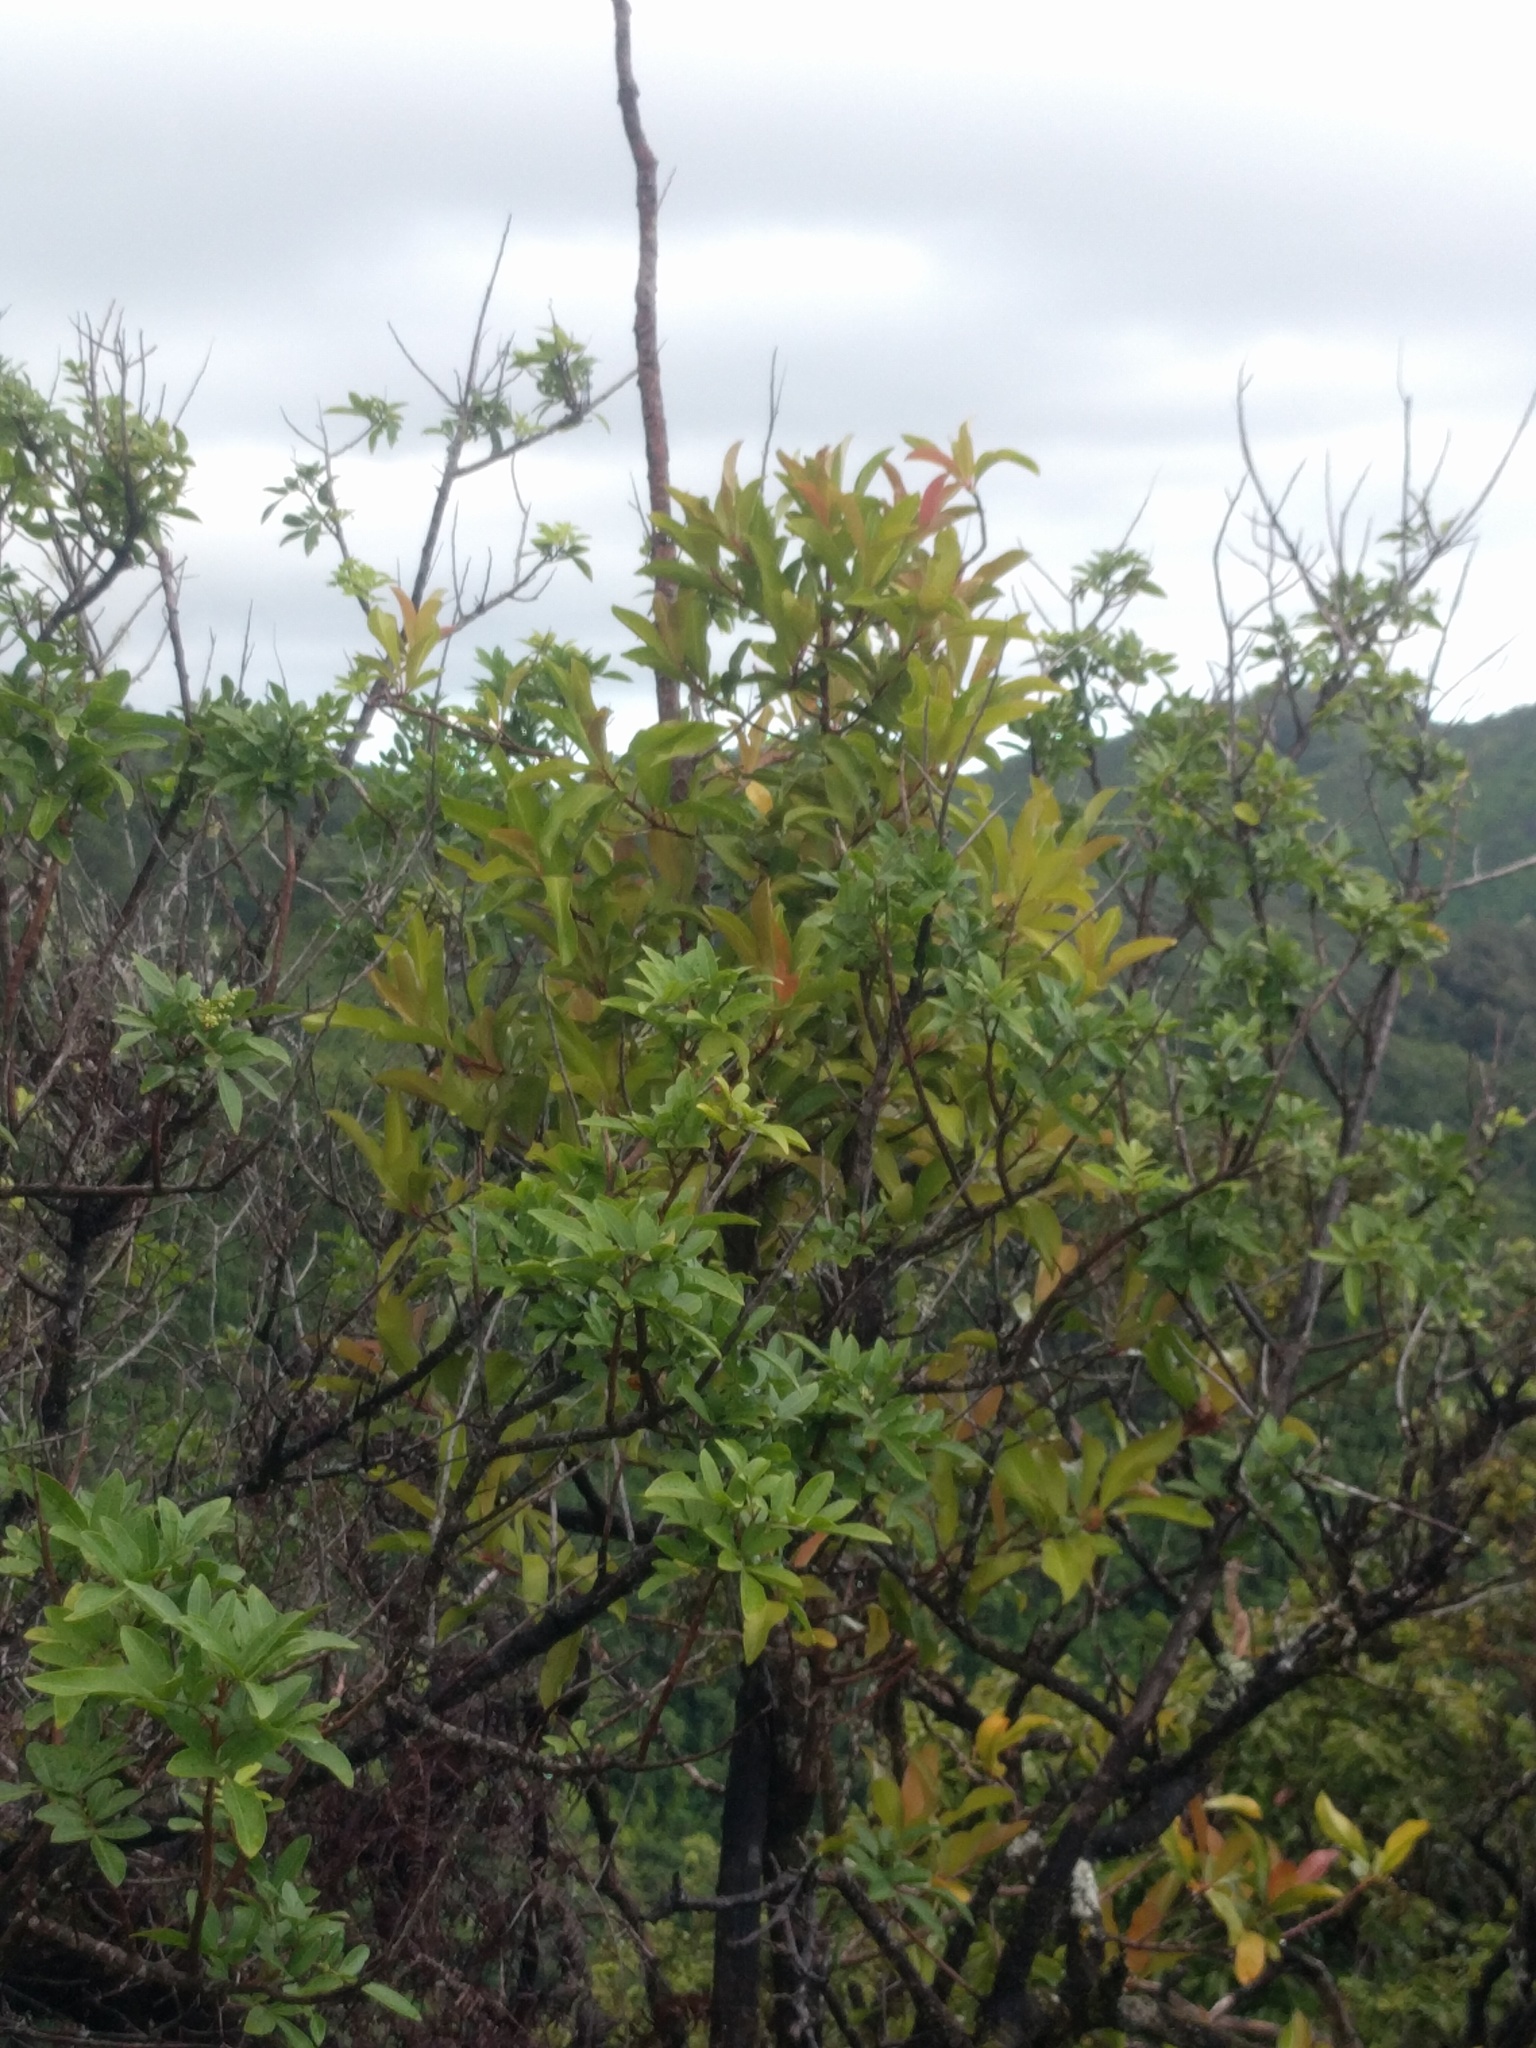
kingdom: Plantae
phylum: Tracheophyta
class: Magnoliopsida
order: Sapindales
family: Anacardiaceae
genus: Schinus
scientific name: Schinus terebinthifolia
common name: Brazilian peppertree
